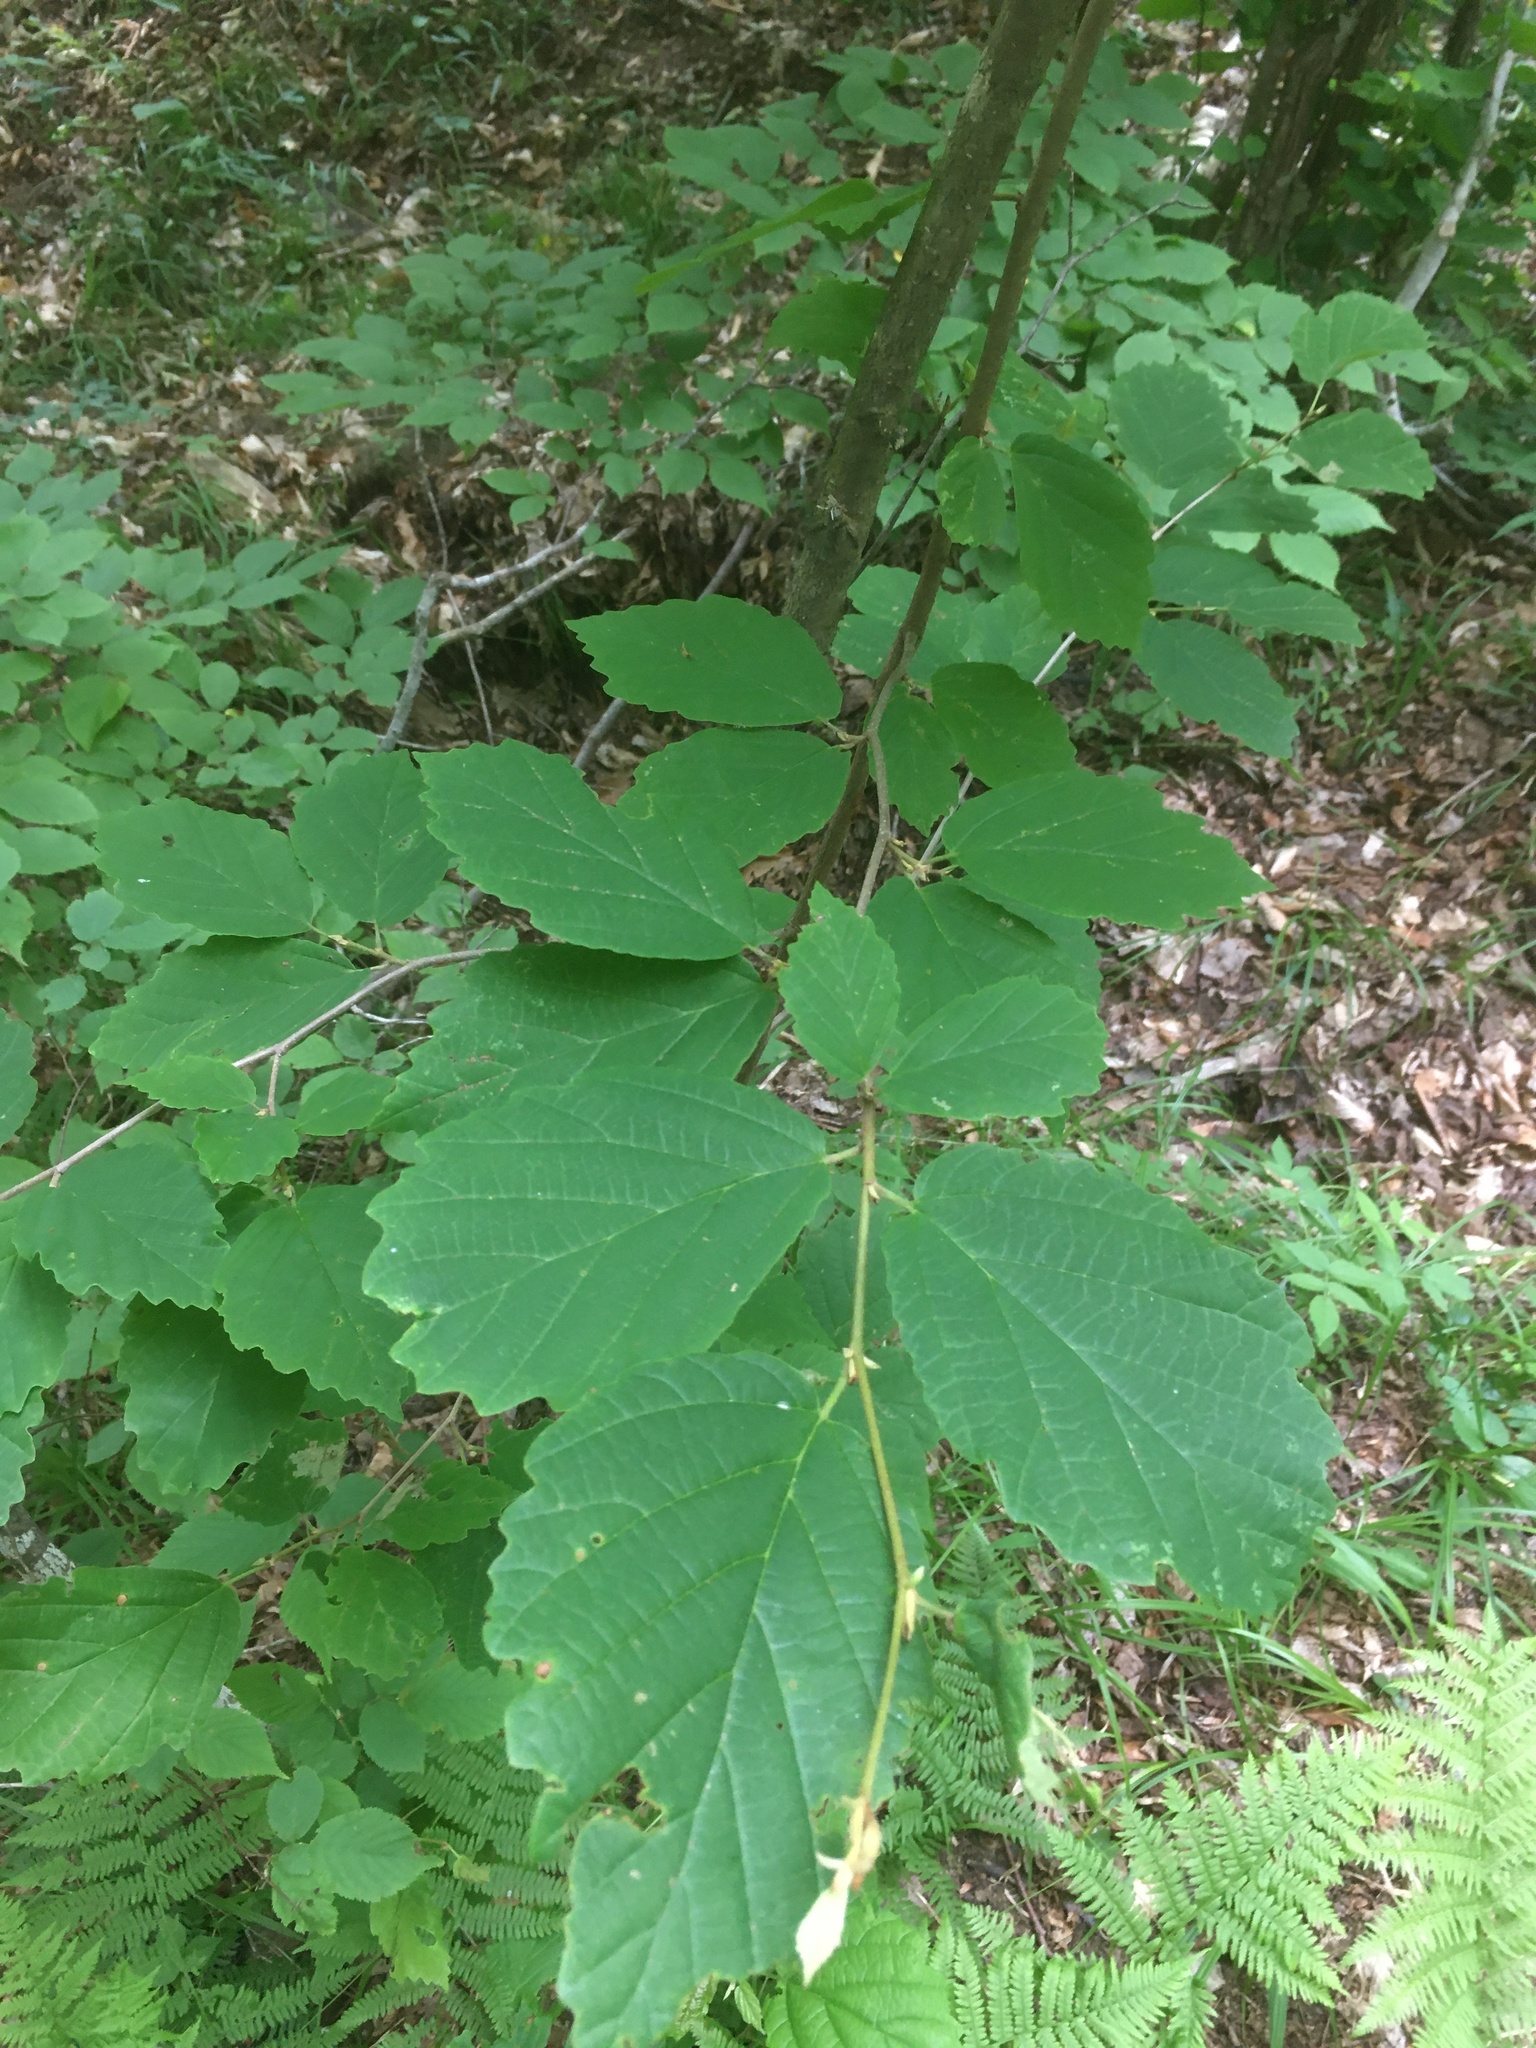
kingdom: Plantae
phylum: Tracheophyta
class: Magnoliopsida
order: Saxifragales
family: Hamamelidaceae
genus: Hamamelis
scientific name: Hamamelis virginiana
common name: Witch-hazel
